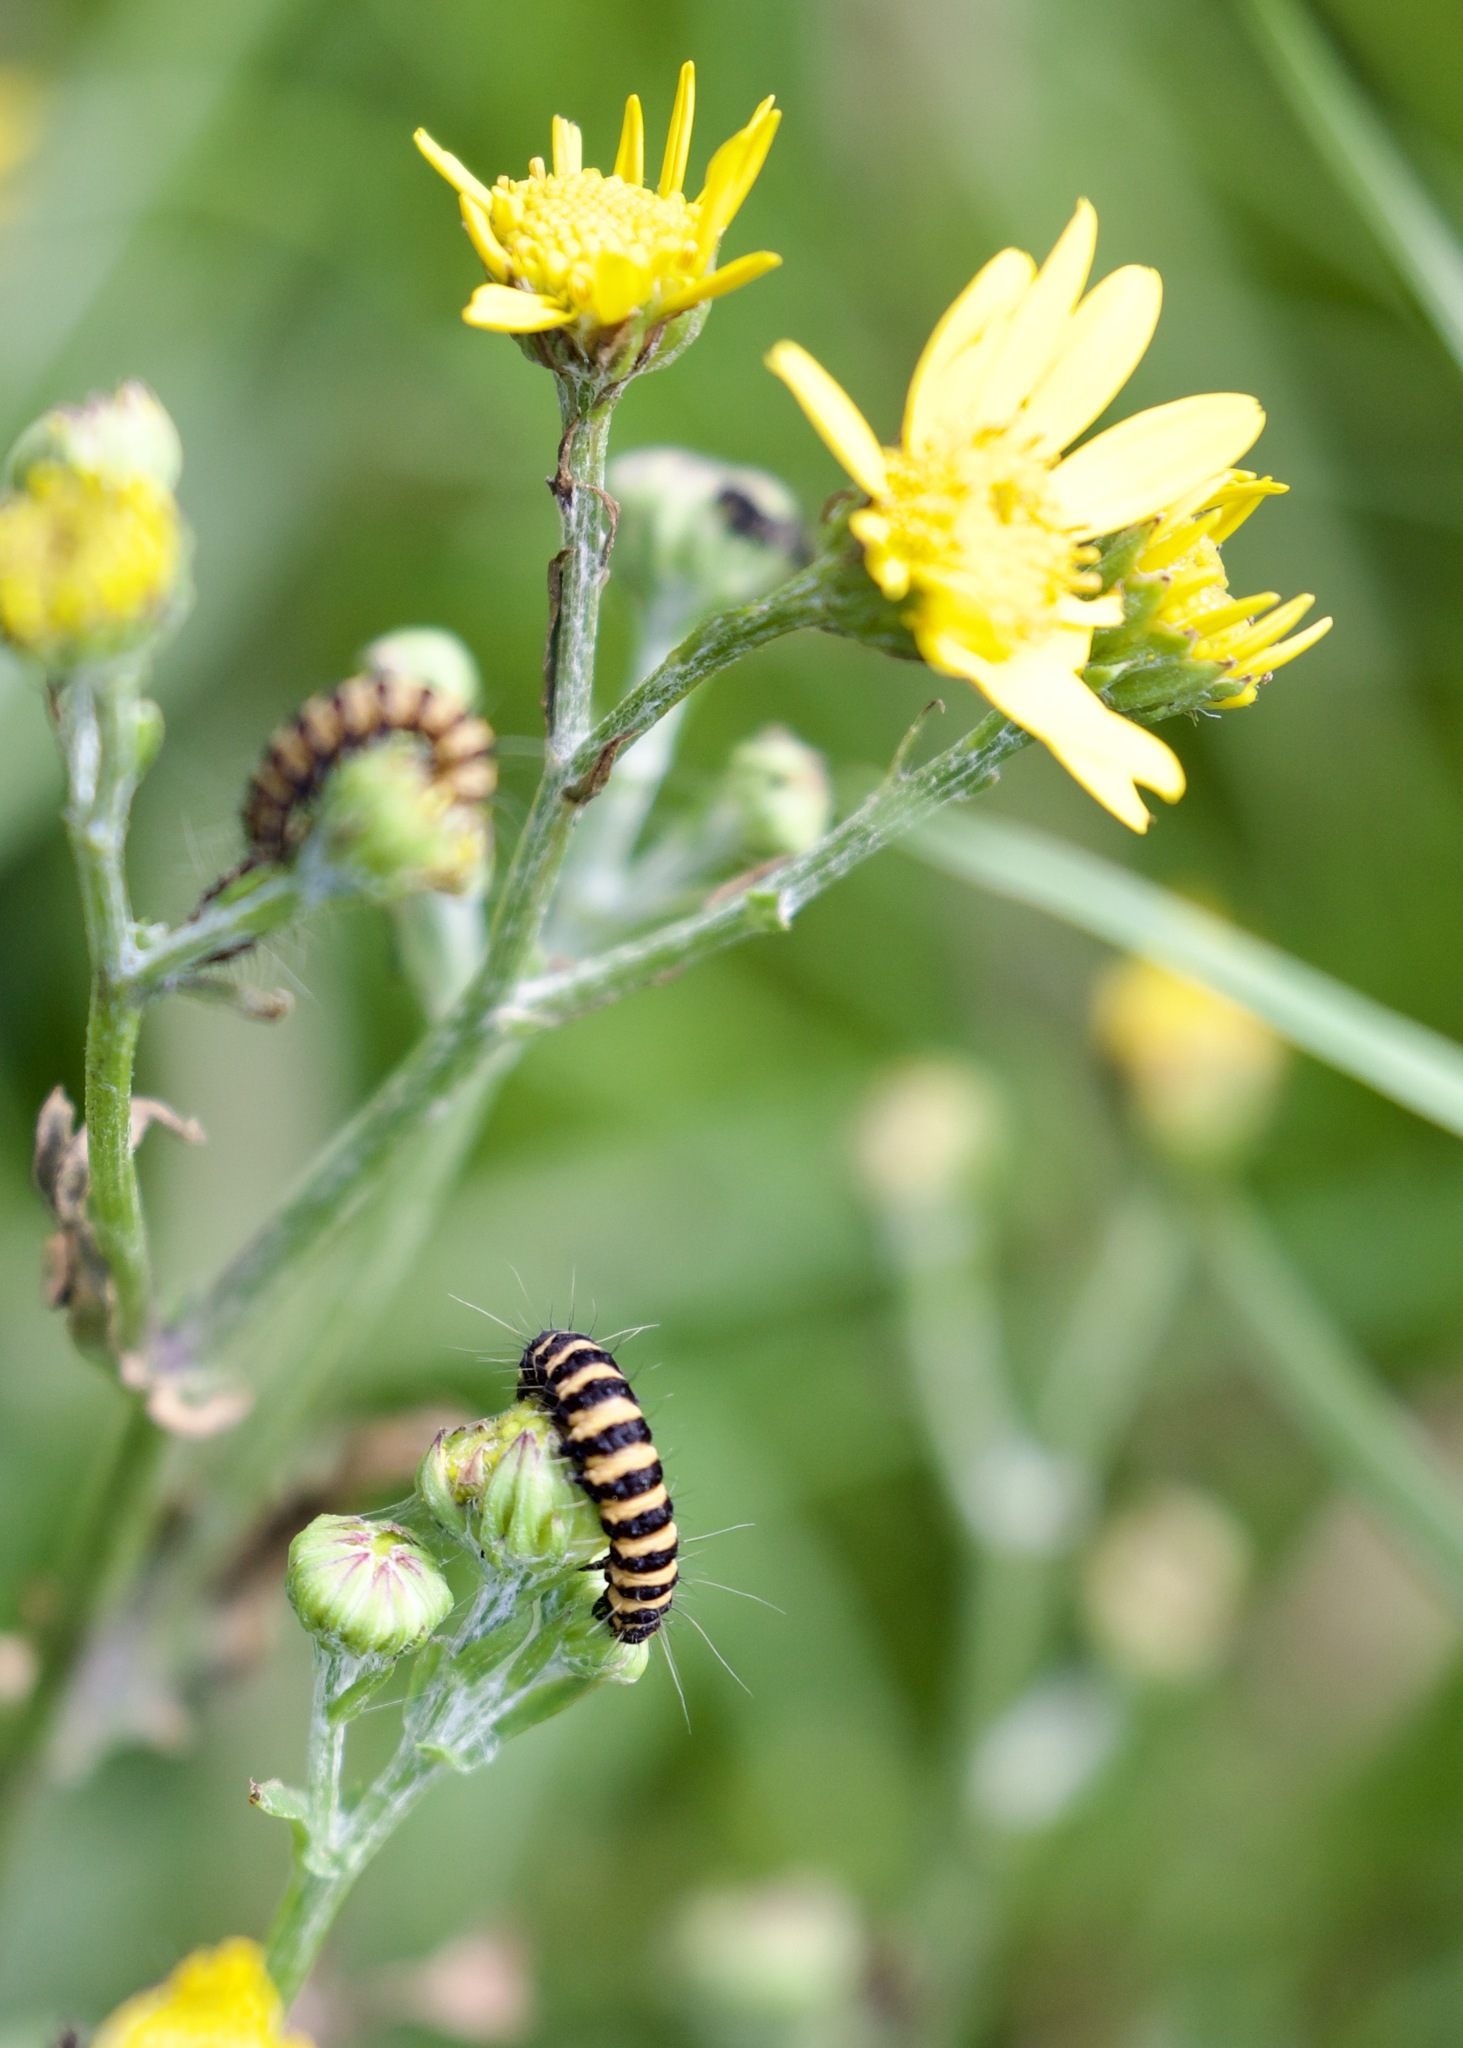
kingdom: Animalia
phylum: Arthropoda
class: Insecta
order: Lepidoptera
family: Erebidae
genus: Tyria
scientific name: Tyria jacobaeae
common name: Cinnabar
